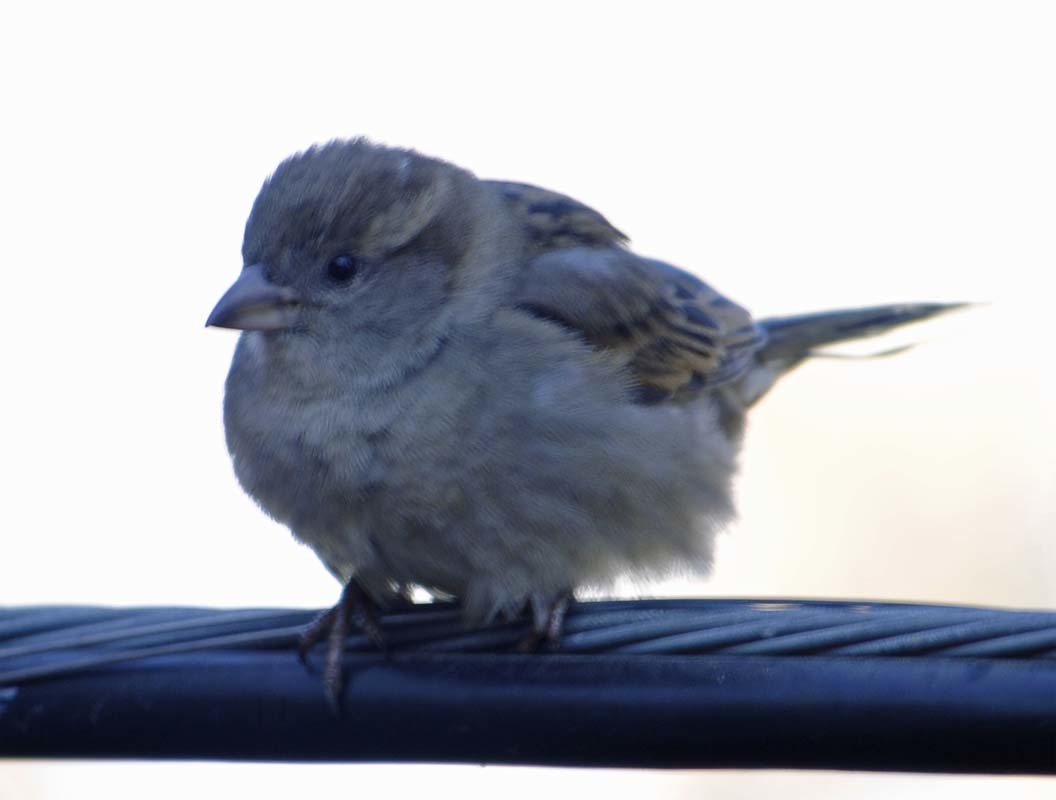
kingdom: Animalia
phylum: Chordata
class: Aves
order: Passeriformes
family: Passeridae
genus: Passer
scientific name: Passer domesticus
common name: House sparrow
